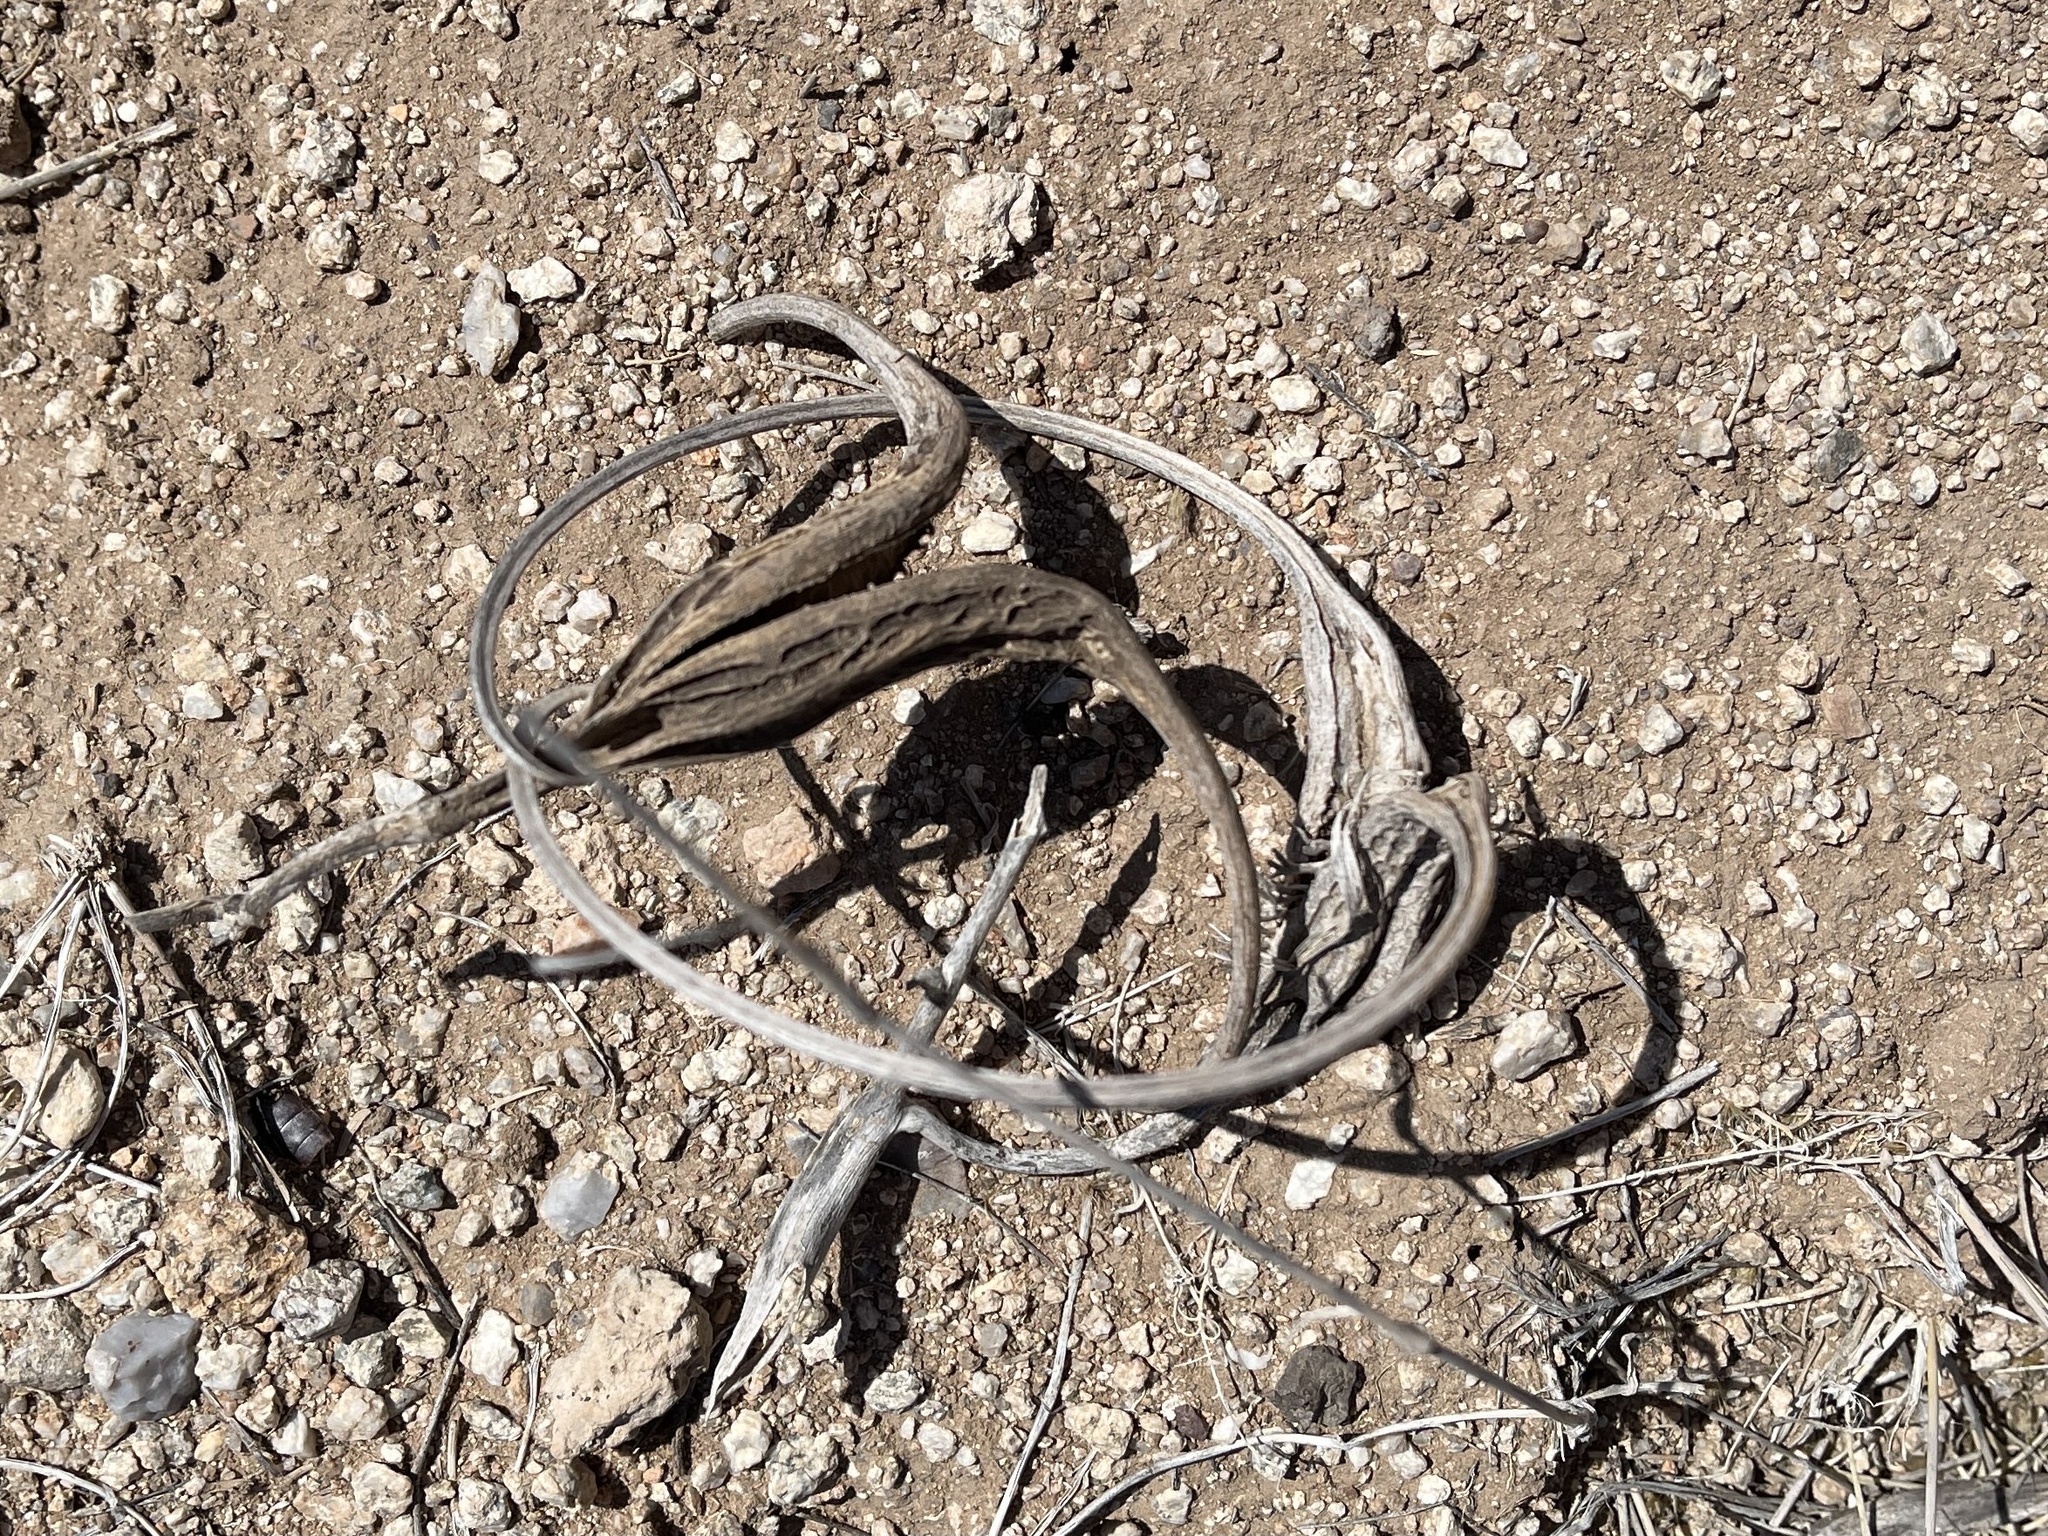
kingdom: Plantae
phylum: Tracheophyta
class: Magnoliopsida
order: Lamiales
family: Martyniaceae
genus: Proboscidea
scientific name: Proboscidea parviflora
